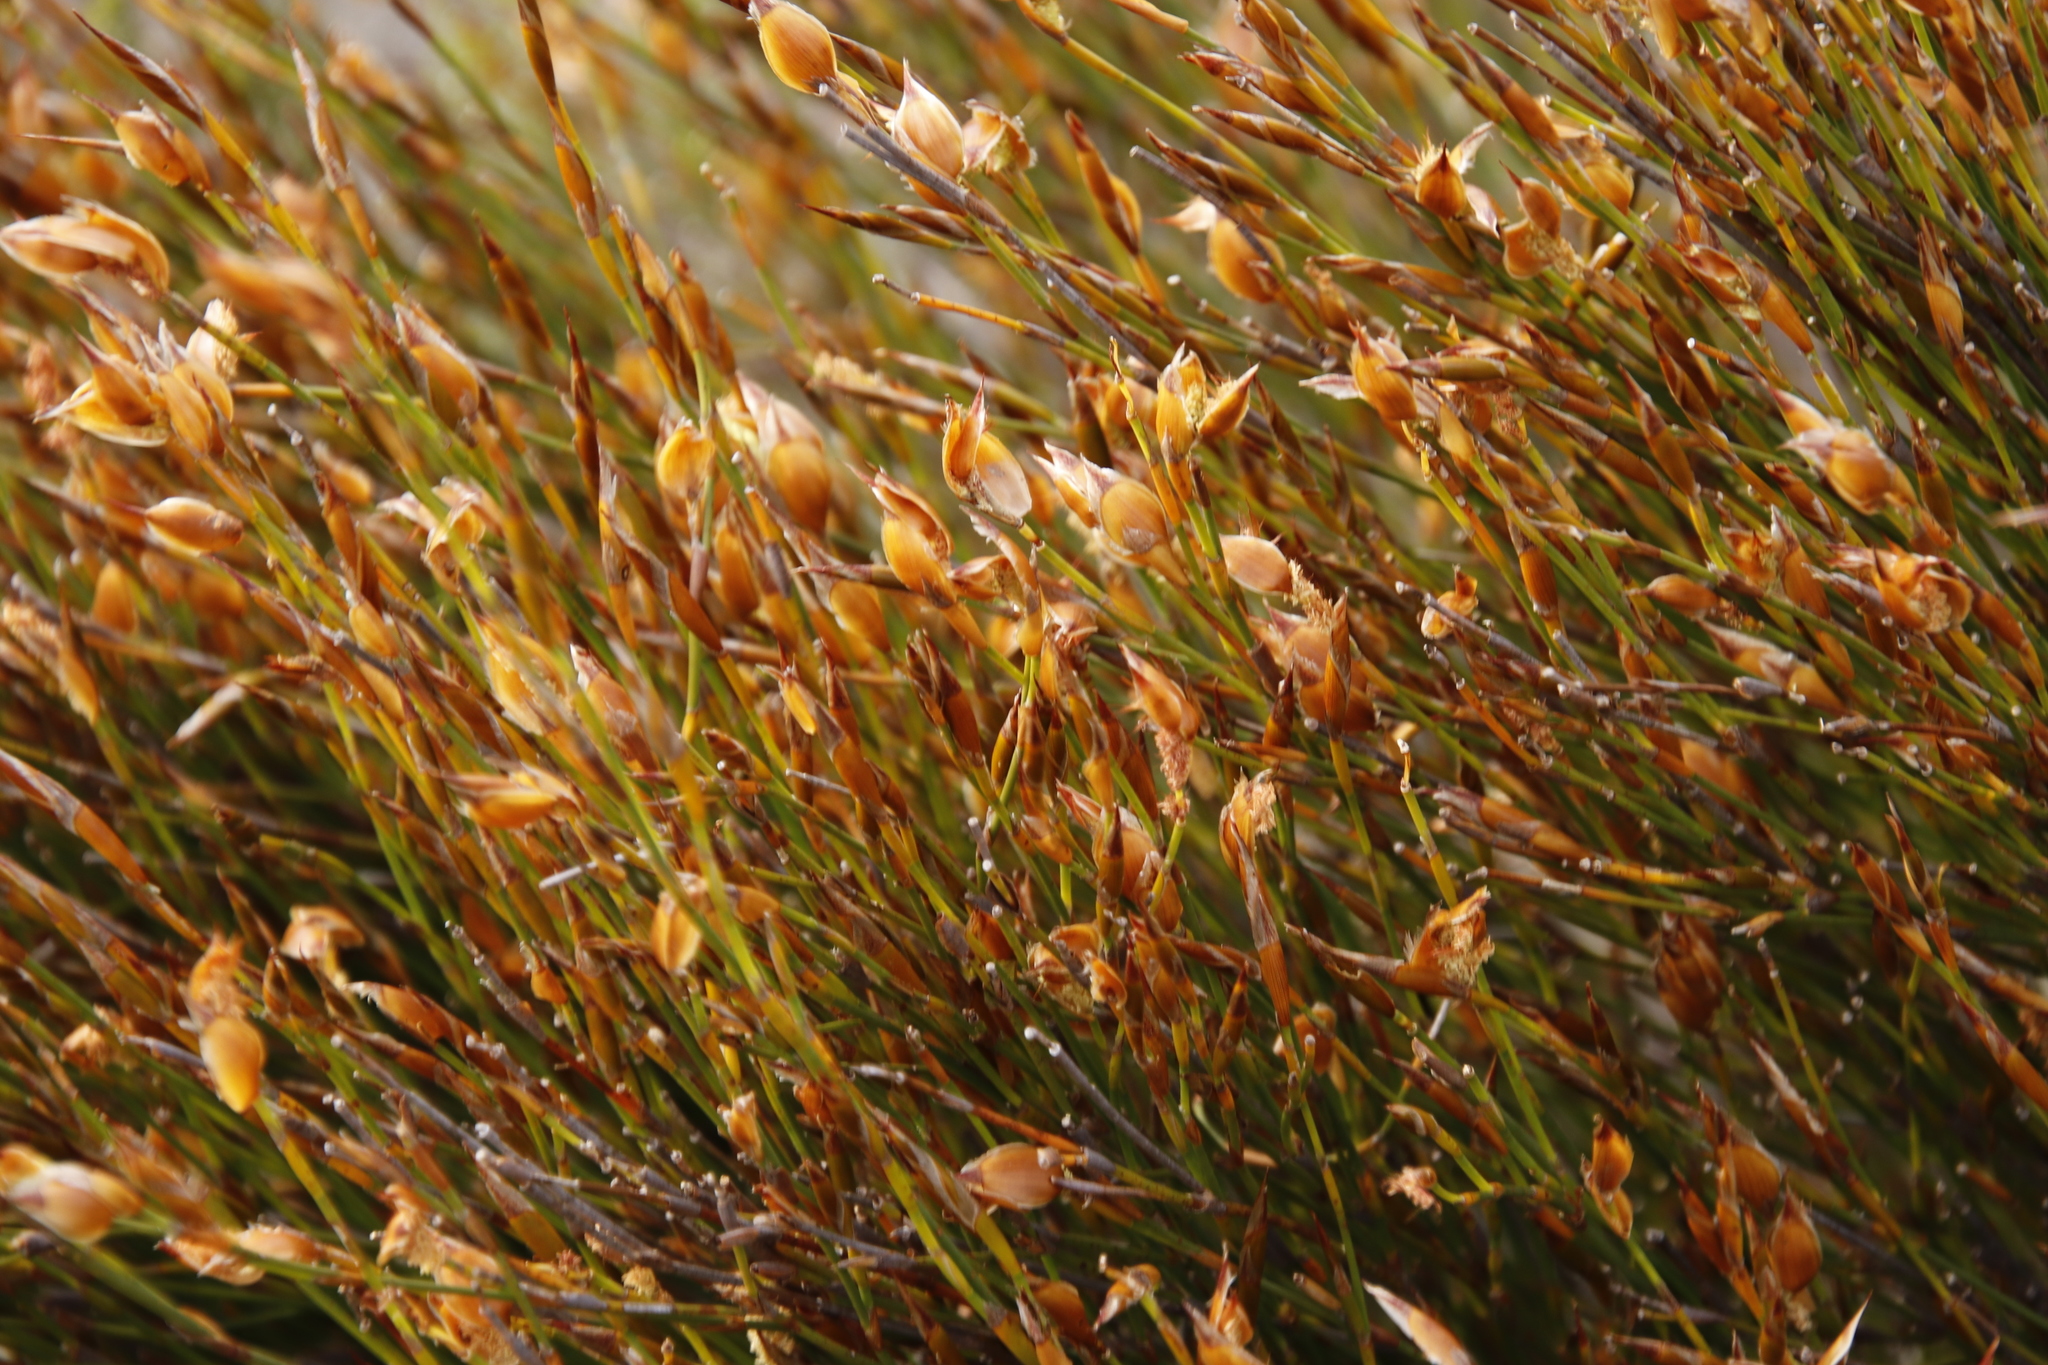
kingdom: Plantae
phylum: Tracheophyta
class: Liliopsida
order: Poales
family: Restionaceae
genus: Willdenowia
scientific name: Willdenowia teres
